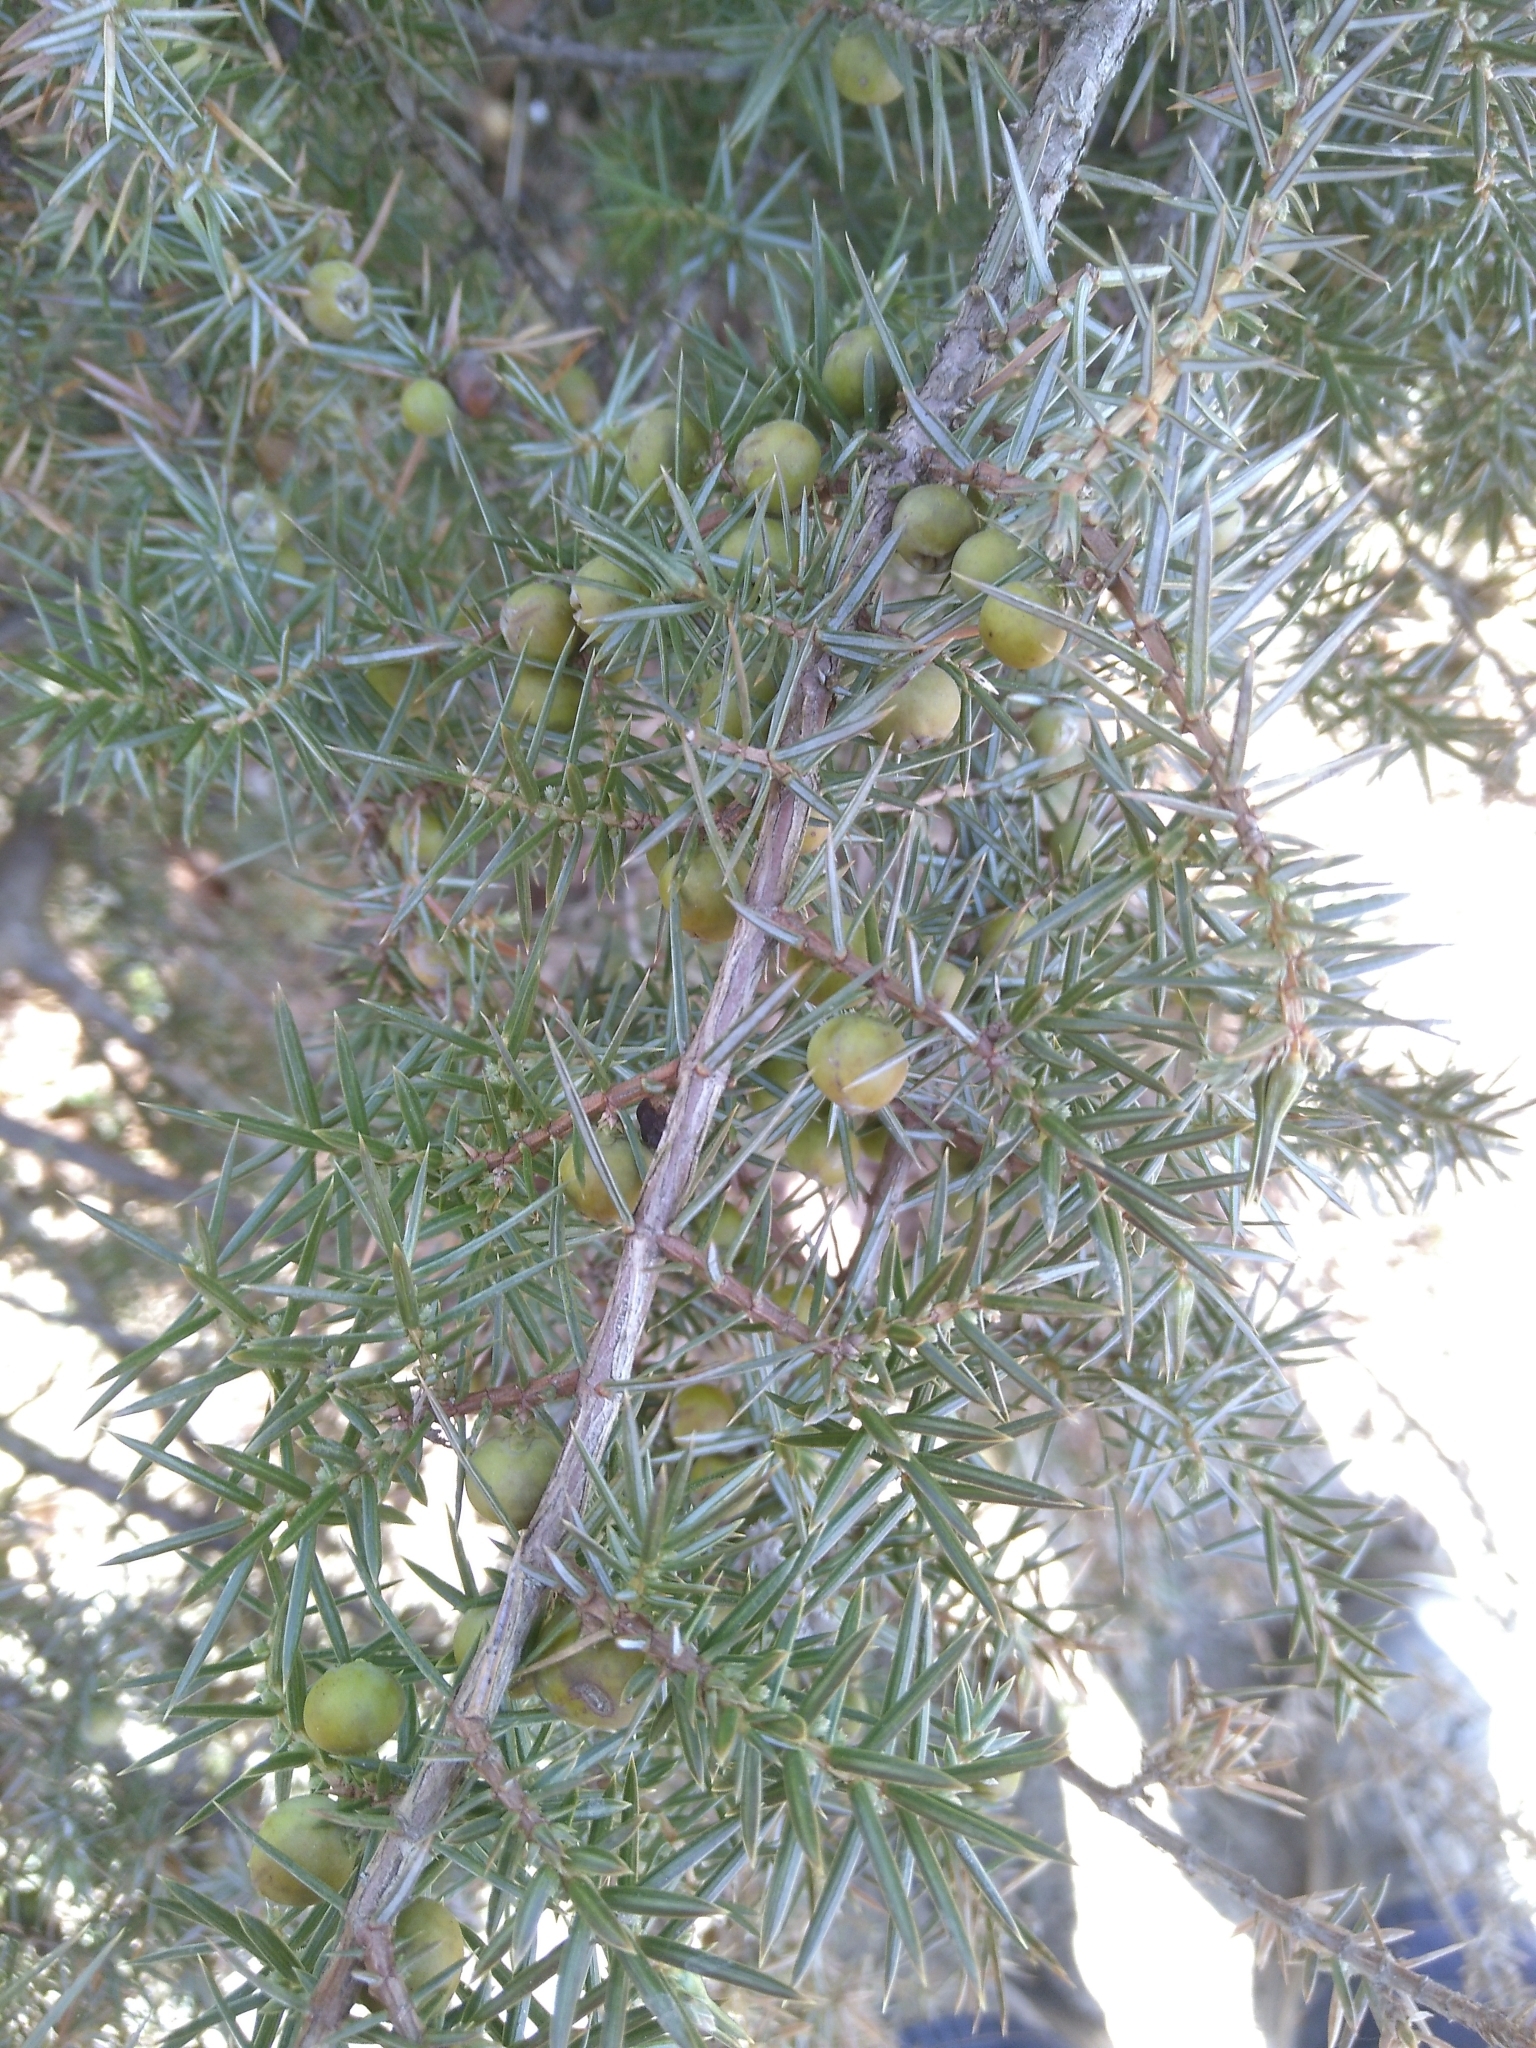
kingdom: Plantae
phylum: Tracheophyta
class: Pinopsida
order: Pinales
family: Cupressaceae
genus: Juniperus
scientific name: Juniperus communis
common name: Common juniper
